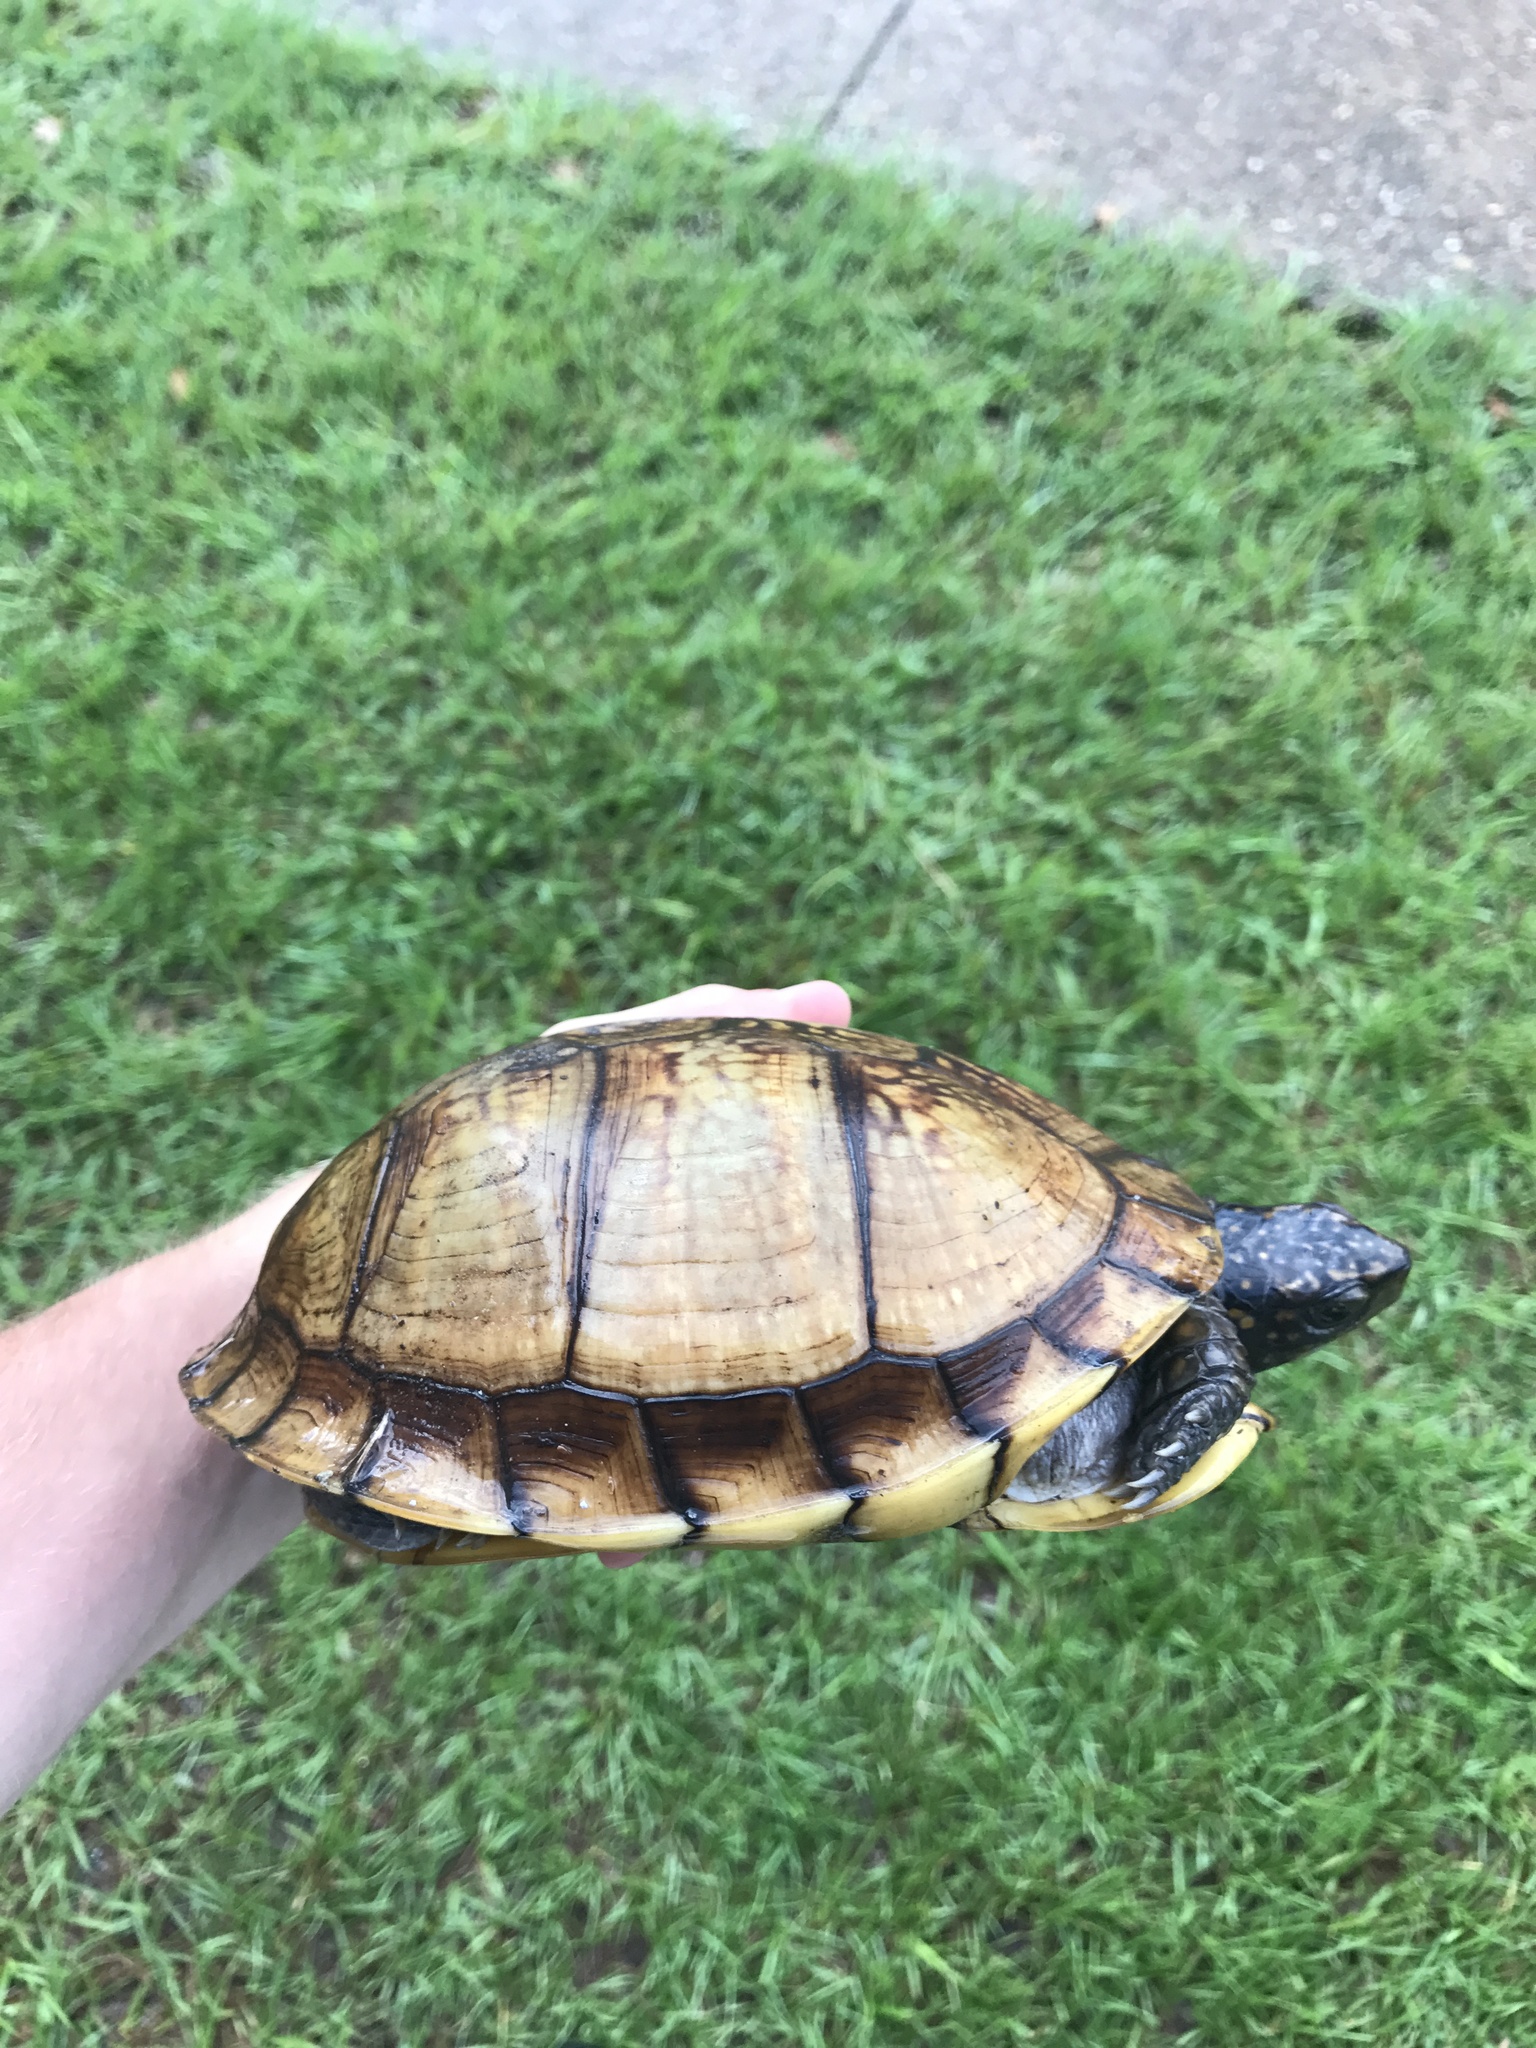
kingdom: Animalia
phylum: Chordata
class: Testudines
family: Emydidae
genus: Terrapene
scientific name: Terrapene carolina
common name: Common box turtle
